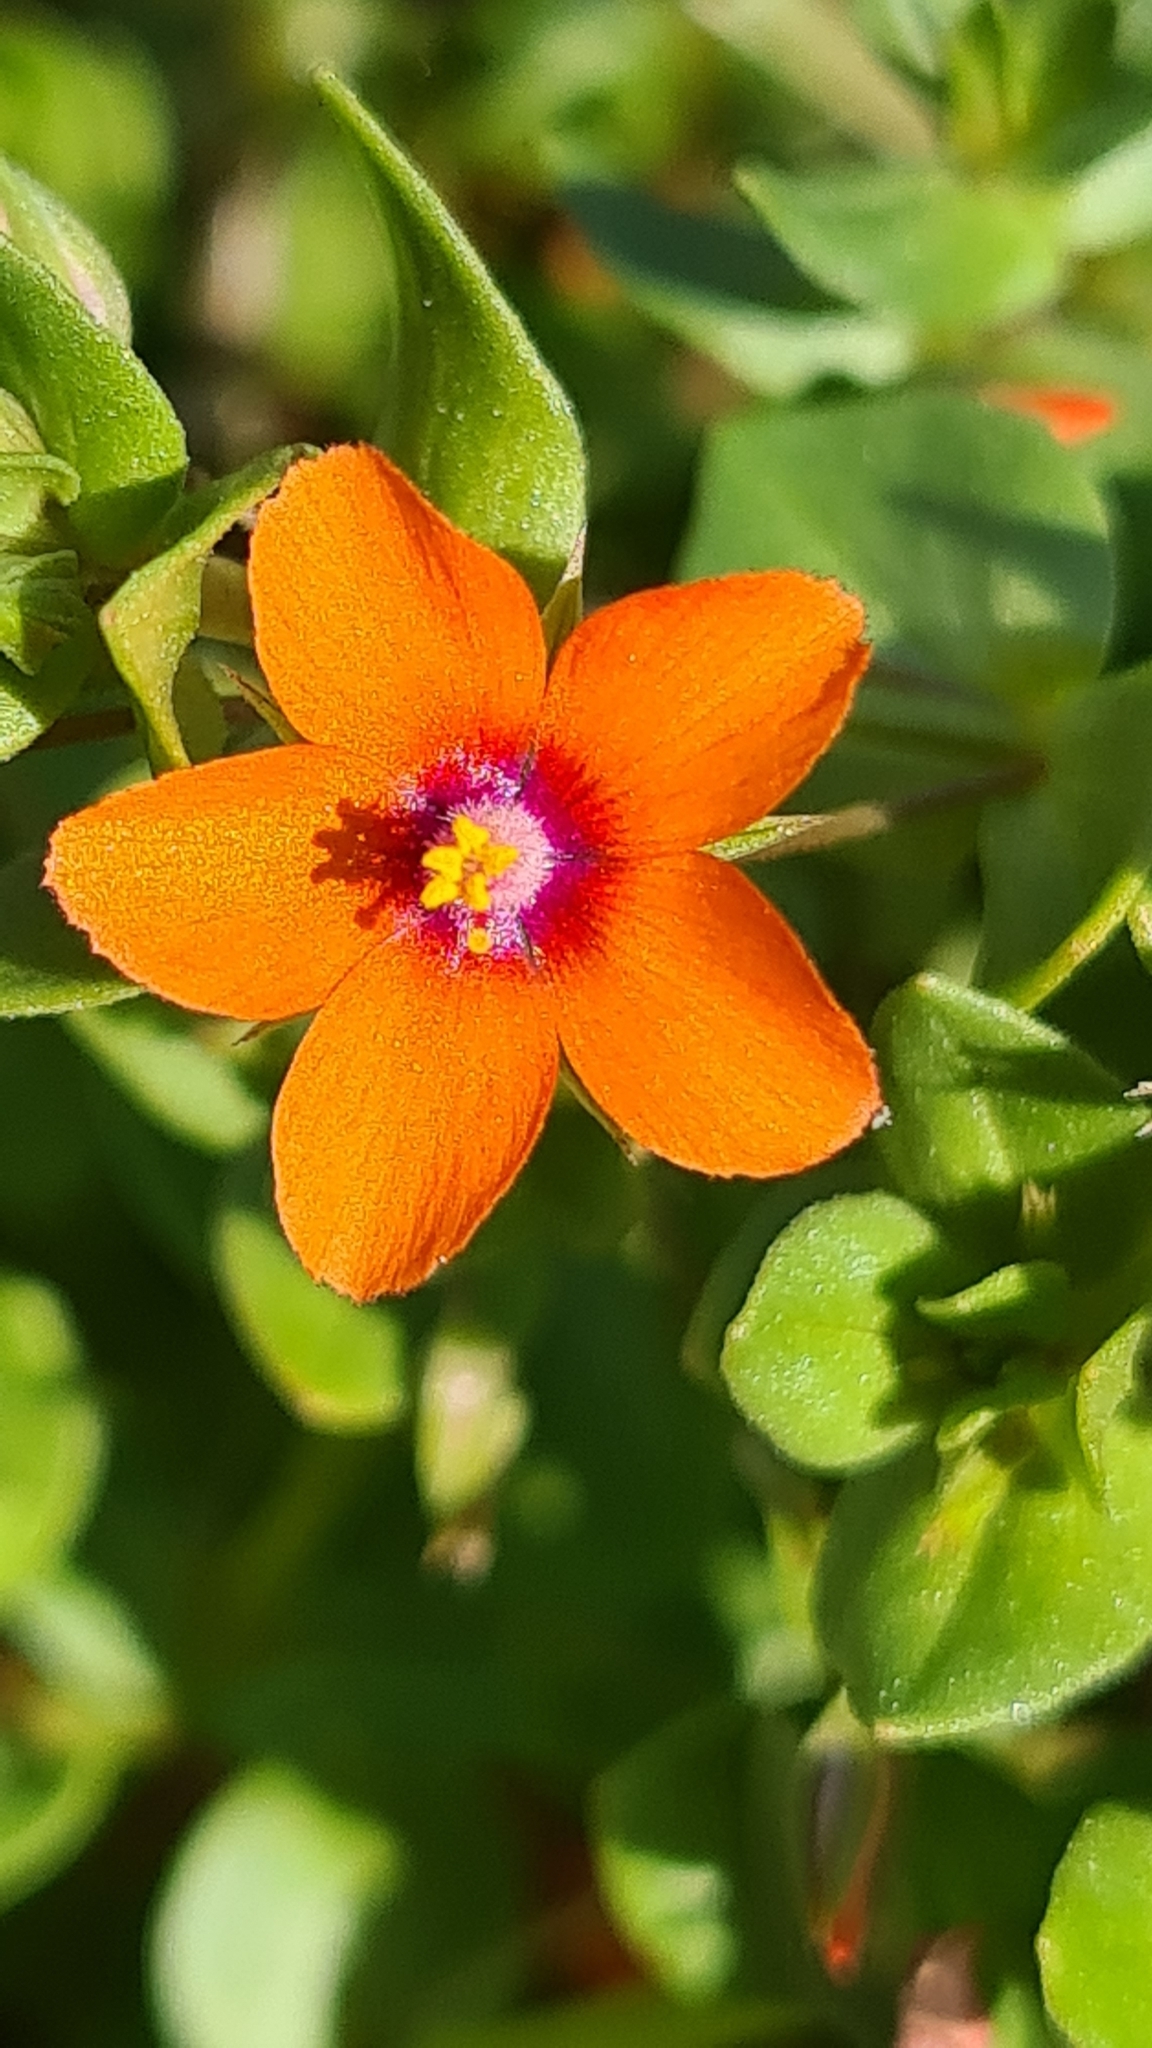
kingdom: Plantae
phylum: Tracheophyta
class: Magnoliopsida
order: Ericales
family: Primulaceae
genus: Lysimachia
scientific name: Lysimachia arvensis
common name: Scarlet pimpernel
